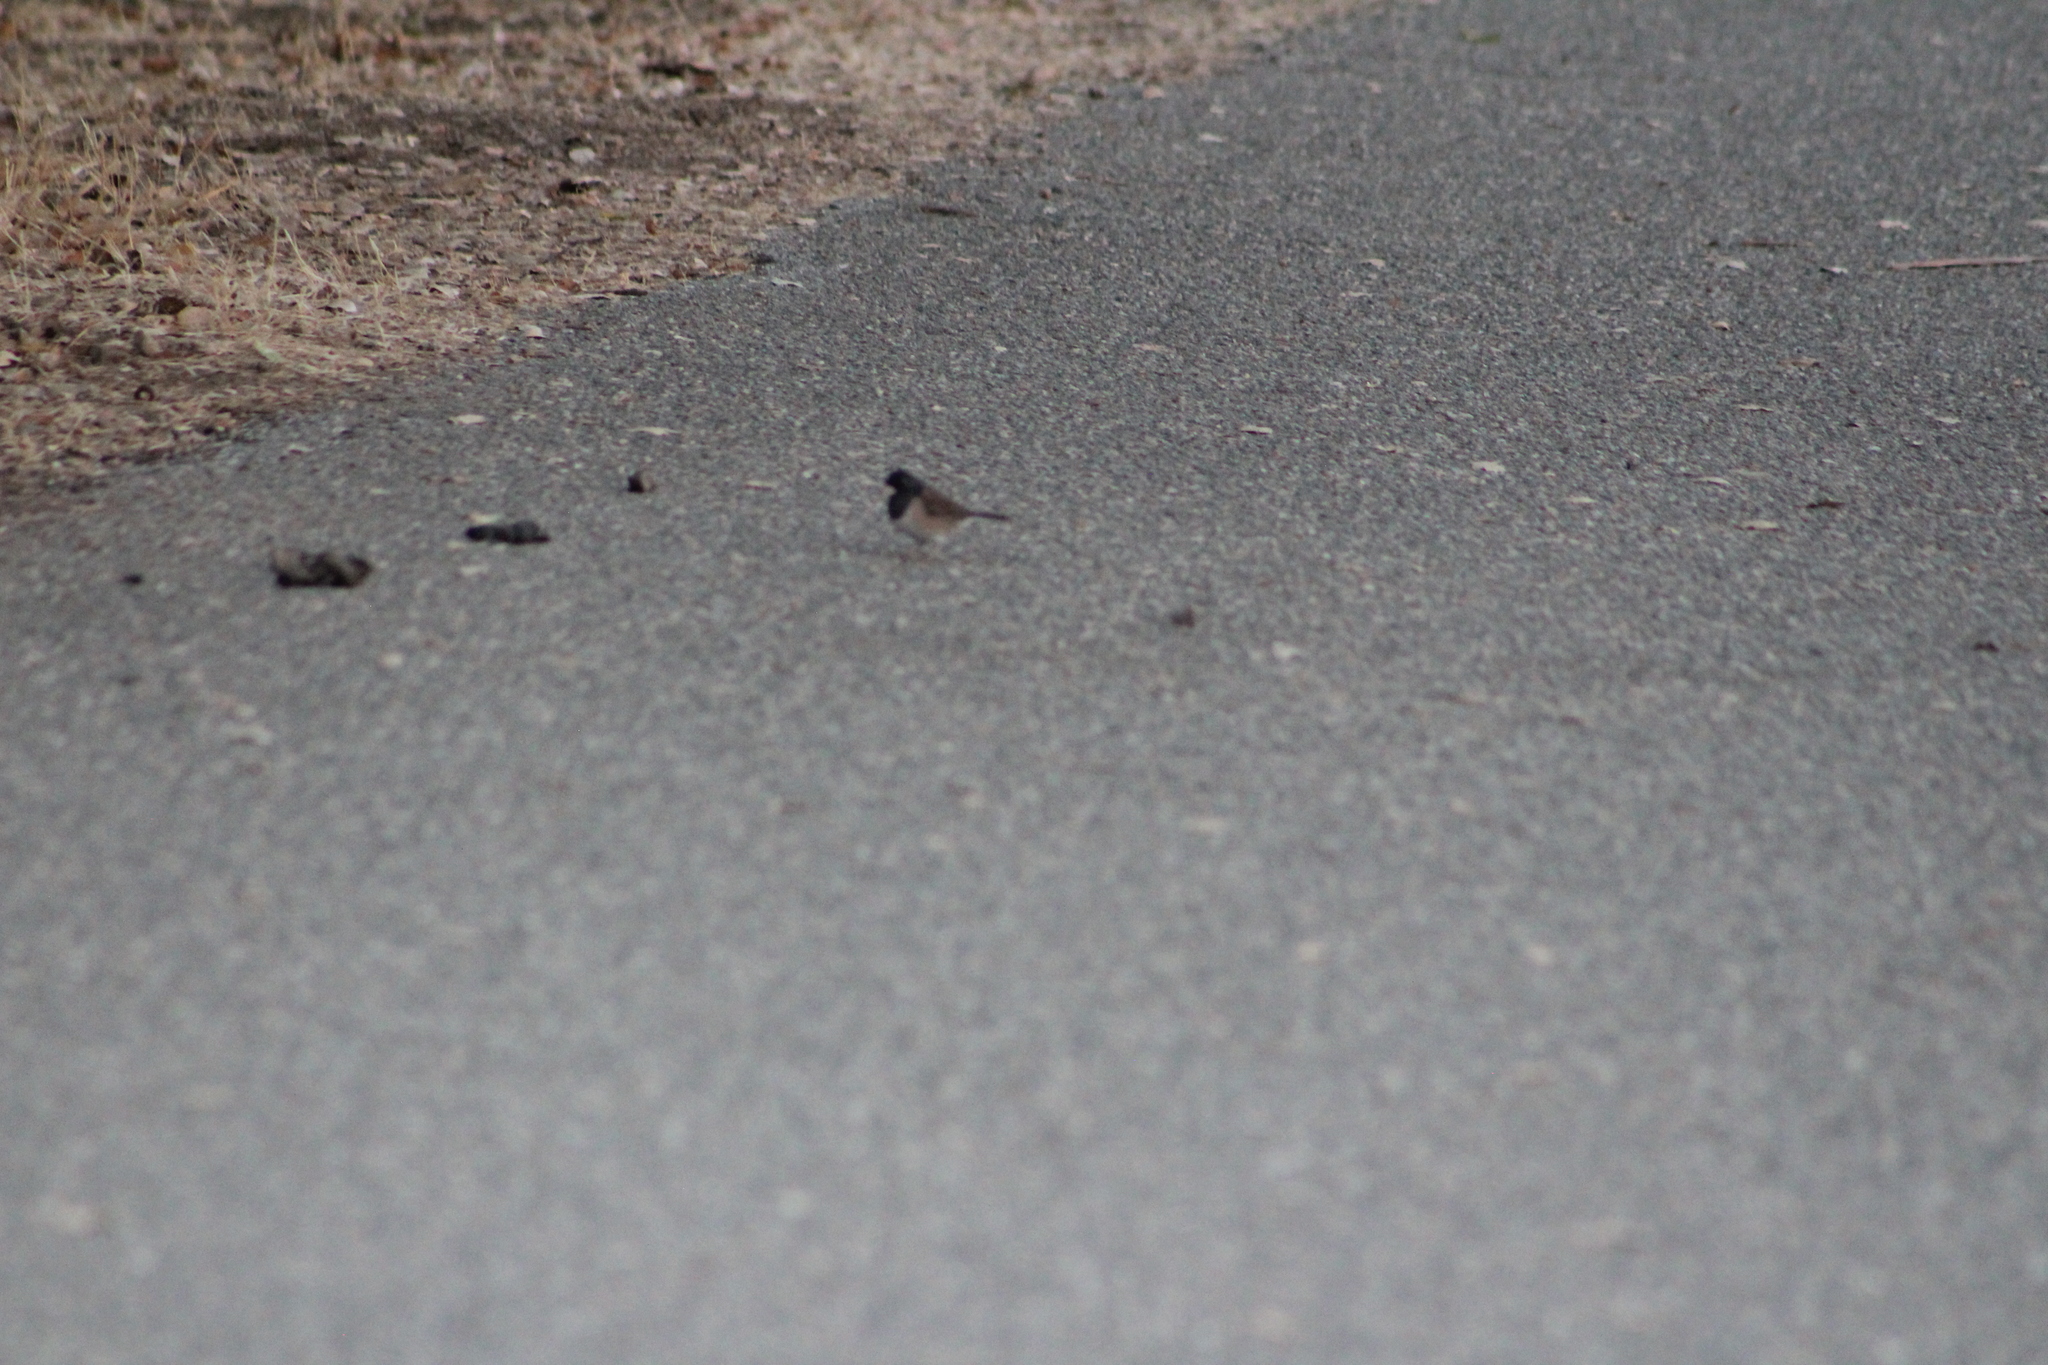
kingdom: Animalia
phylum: Chordata
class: Aves
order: Passeriformes
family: Passerellidae
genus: Junco
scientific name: Junco hyemalis
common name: Dark-eyed junco
